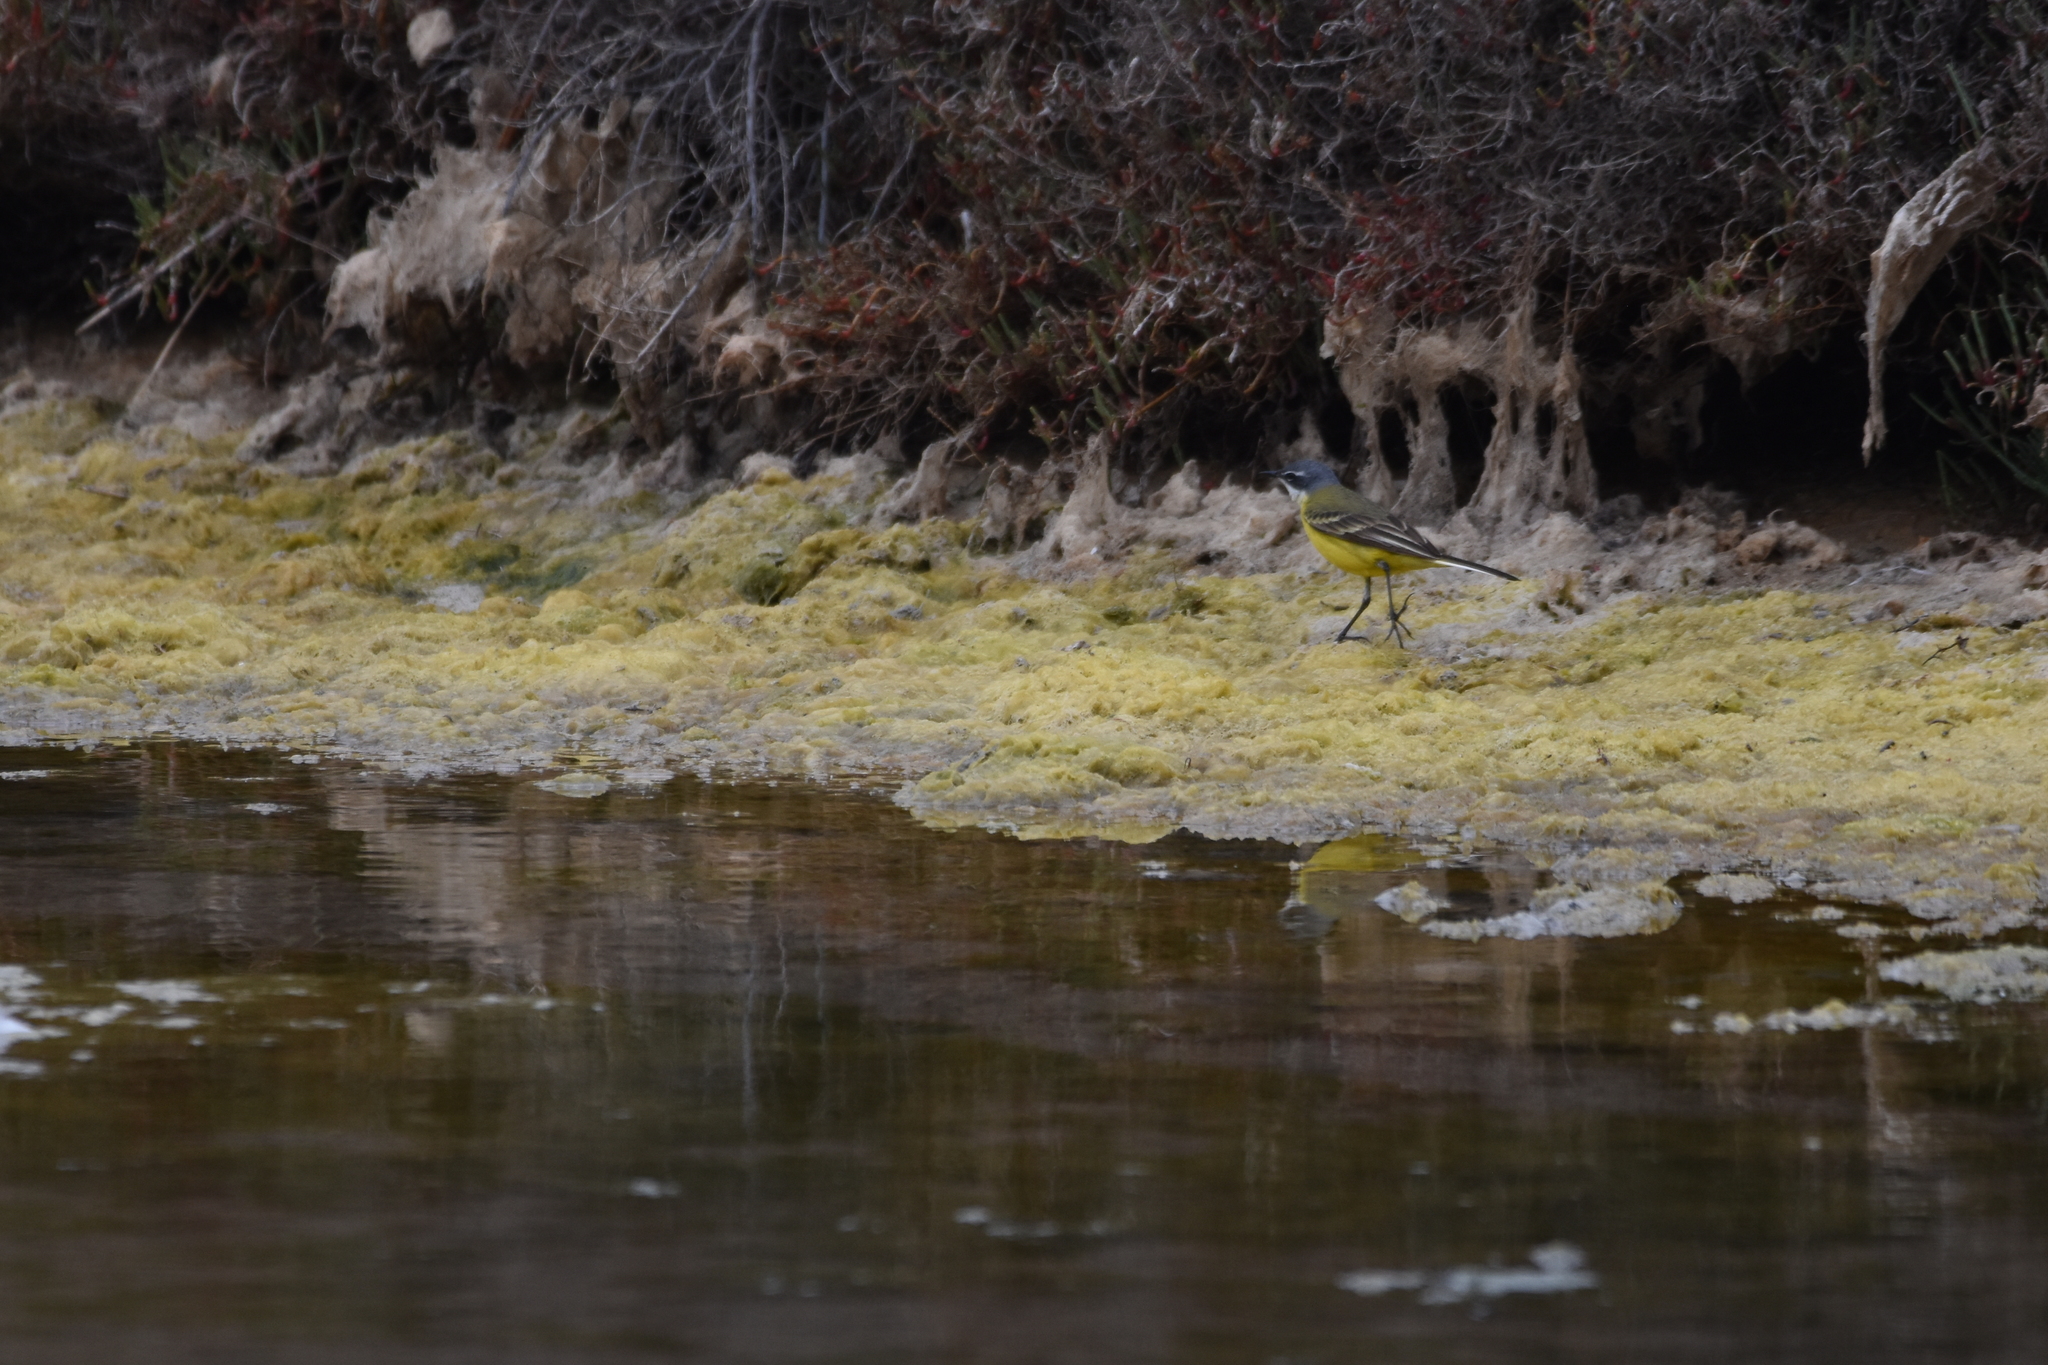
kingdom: Animalia
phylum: Chordata
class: Aves
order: Passeriformes
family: Motacillidae
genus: Motacilla
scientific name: Motacilla flava
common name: Western yellow wagtail
